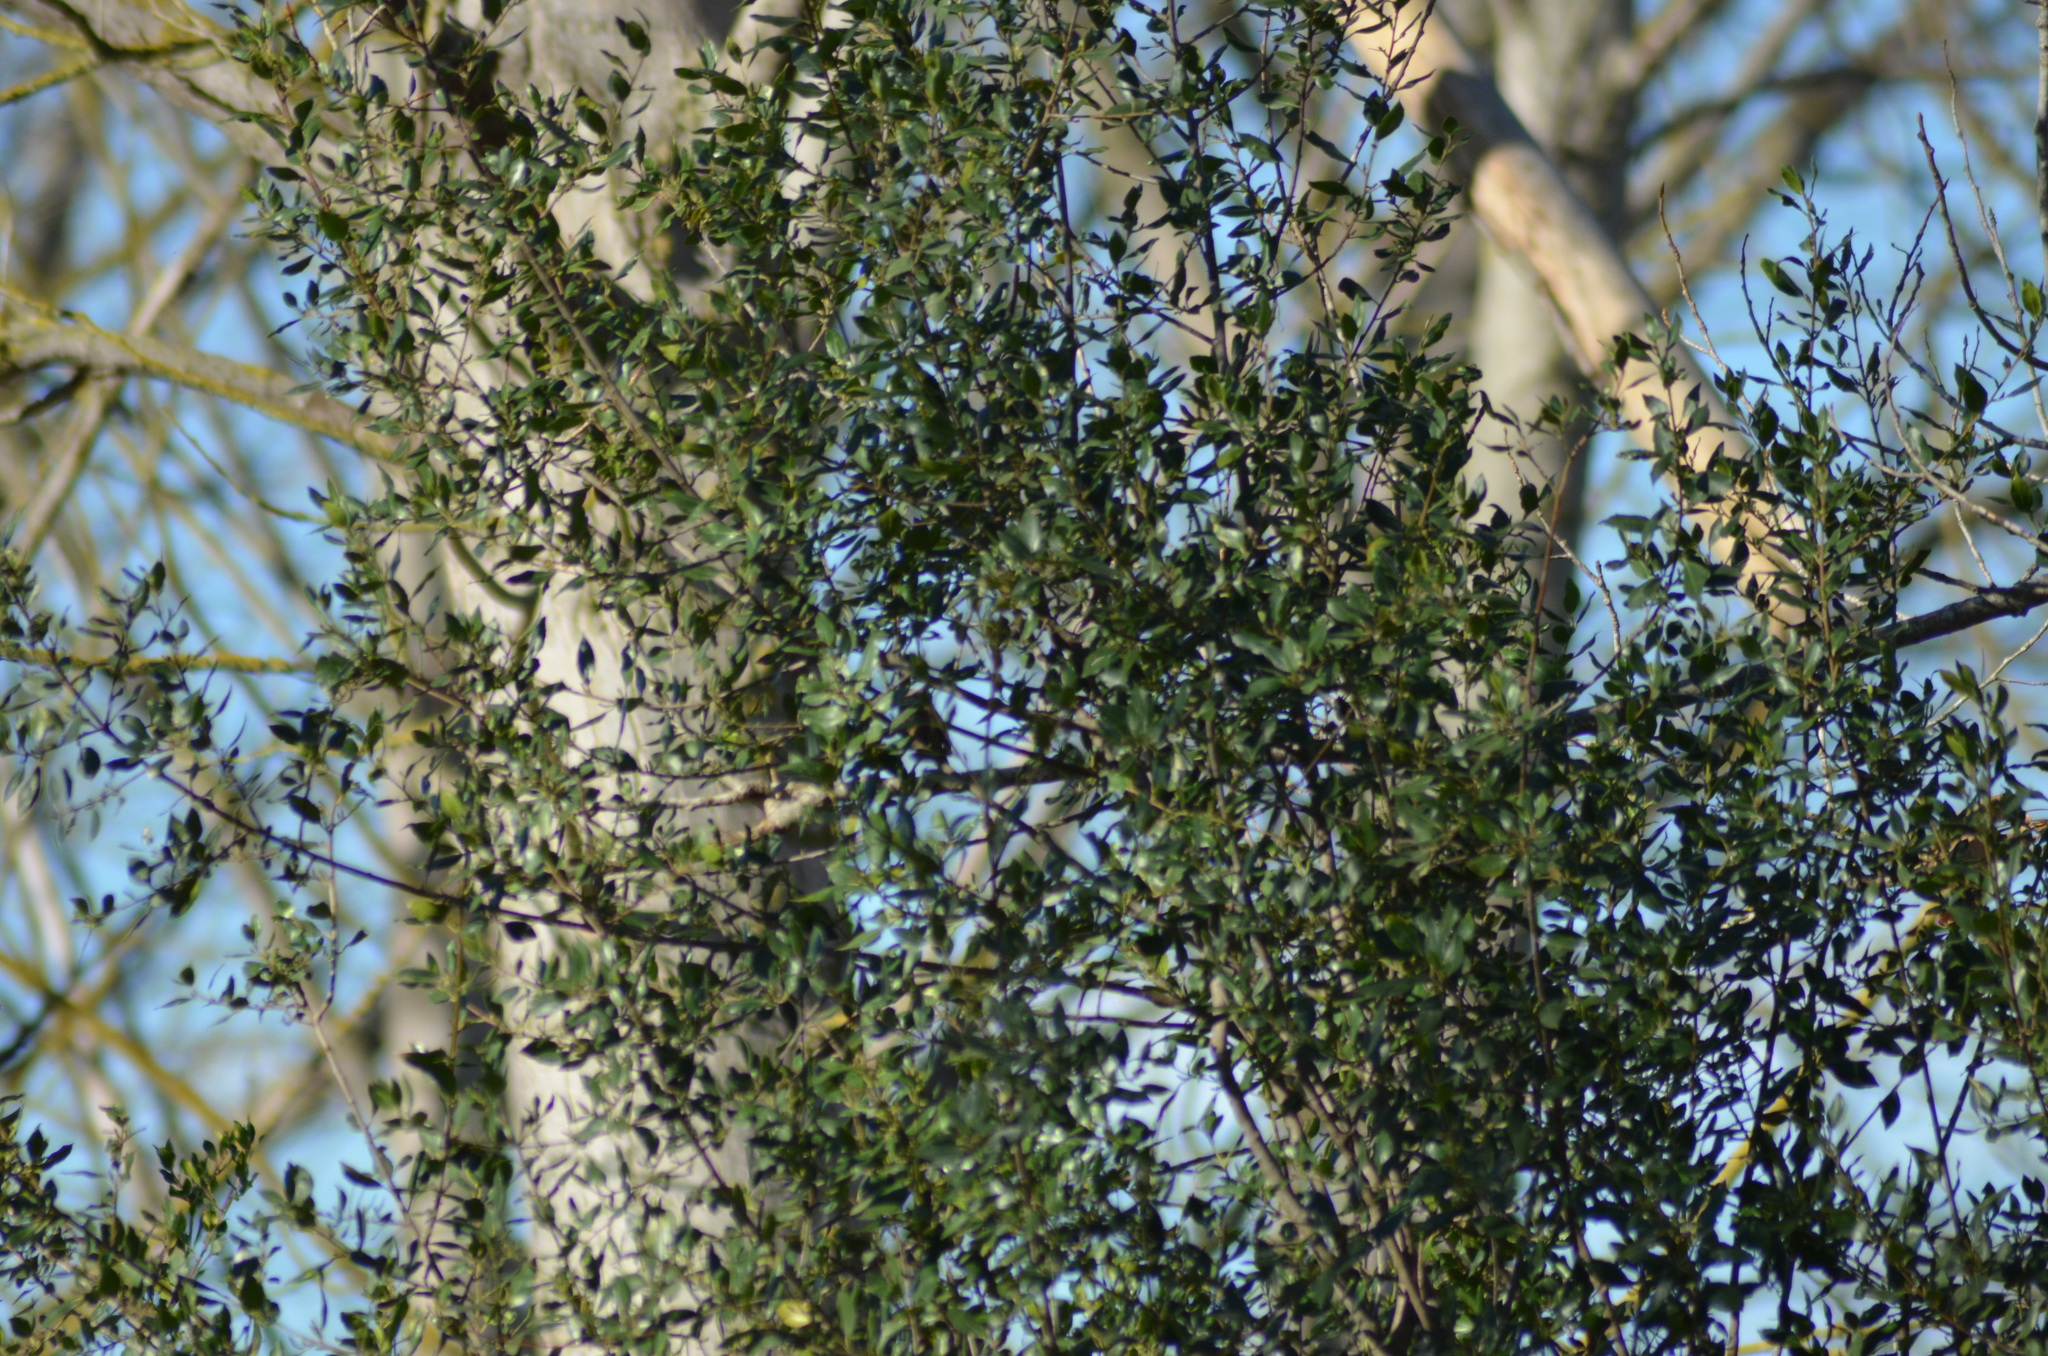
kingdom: Animalia
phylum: Chordata
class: Aves
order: Passeriformes
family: Muscicapidae
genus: Erithacus
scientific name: Erithacus rubecula
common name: European robin
